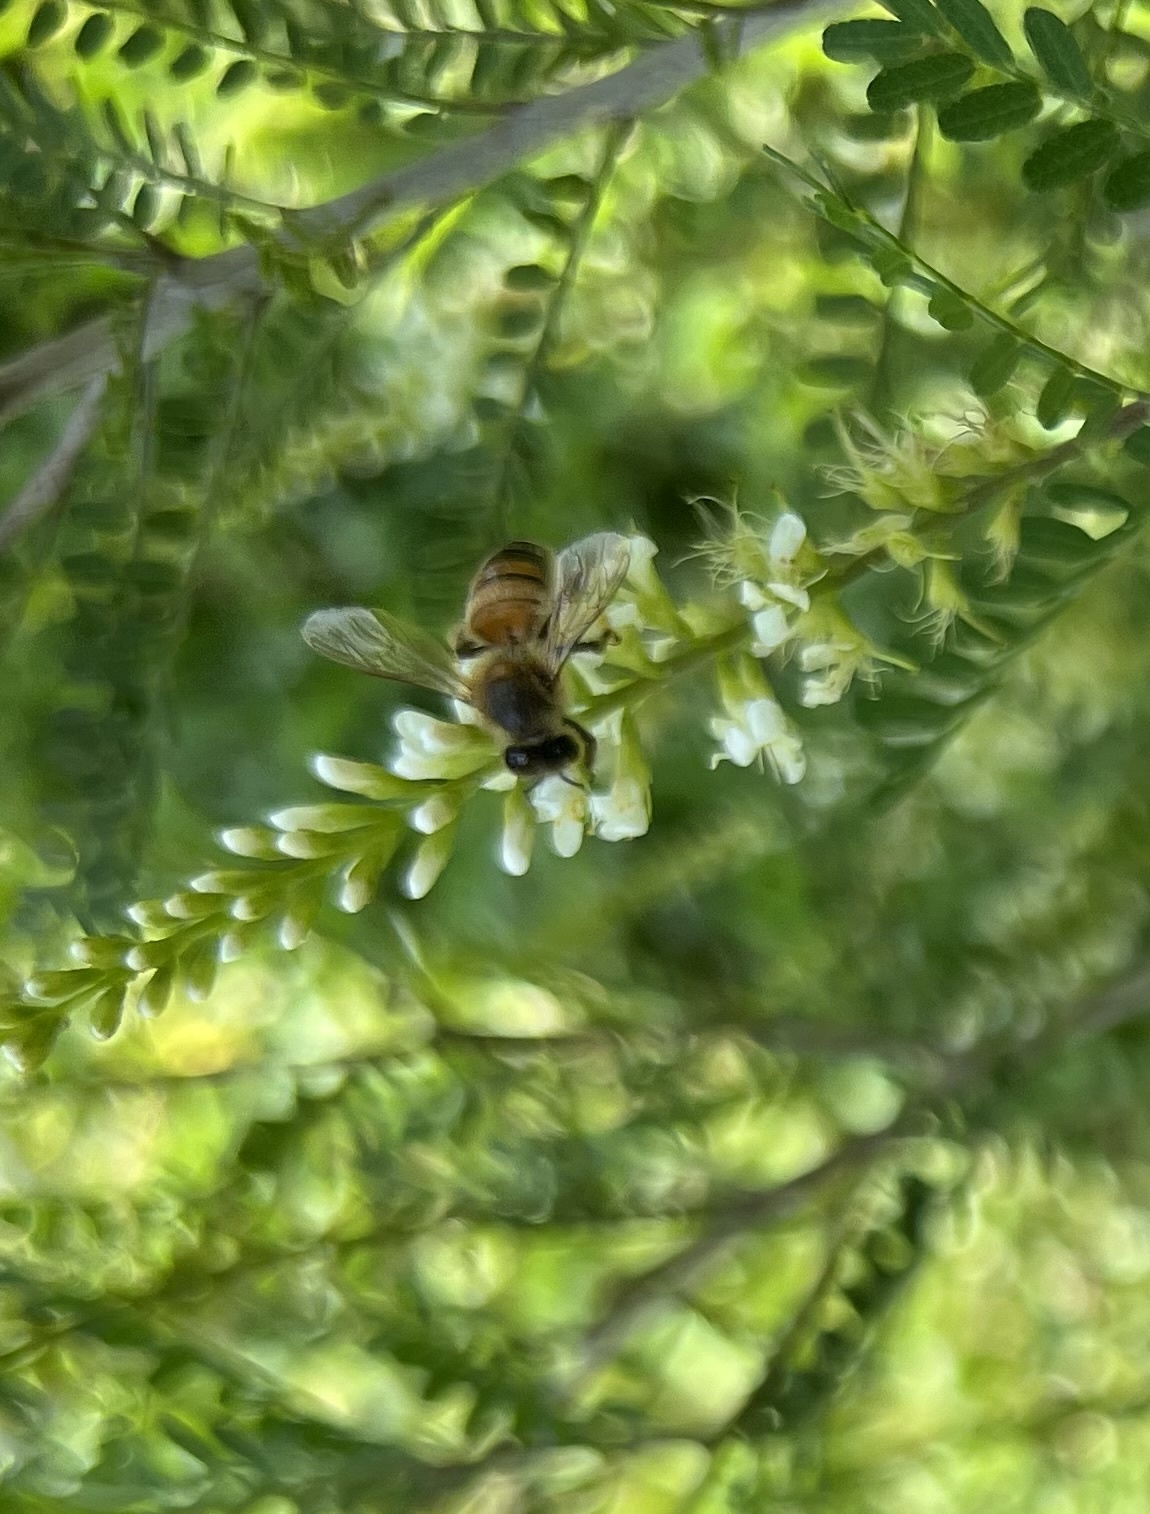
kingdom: Animalia
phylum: Arthropoda
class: Insecta
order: Hymenoptera
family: Apidae
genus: Apis
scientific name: Apis mellifera
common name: Honey bee
